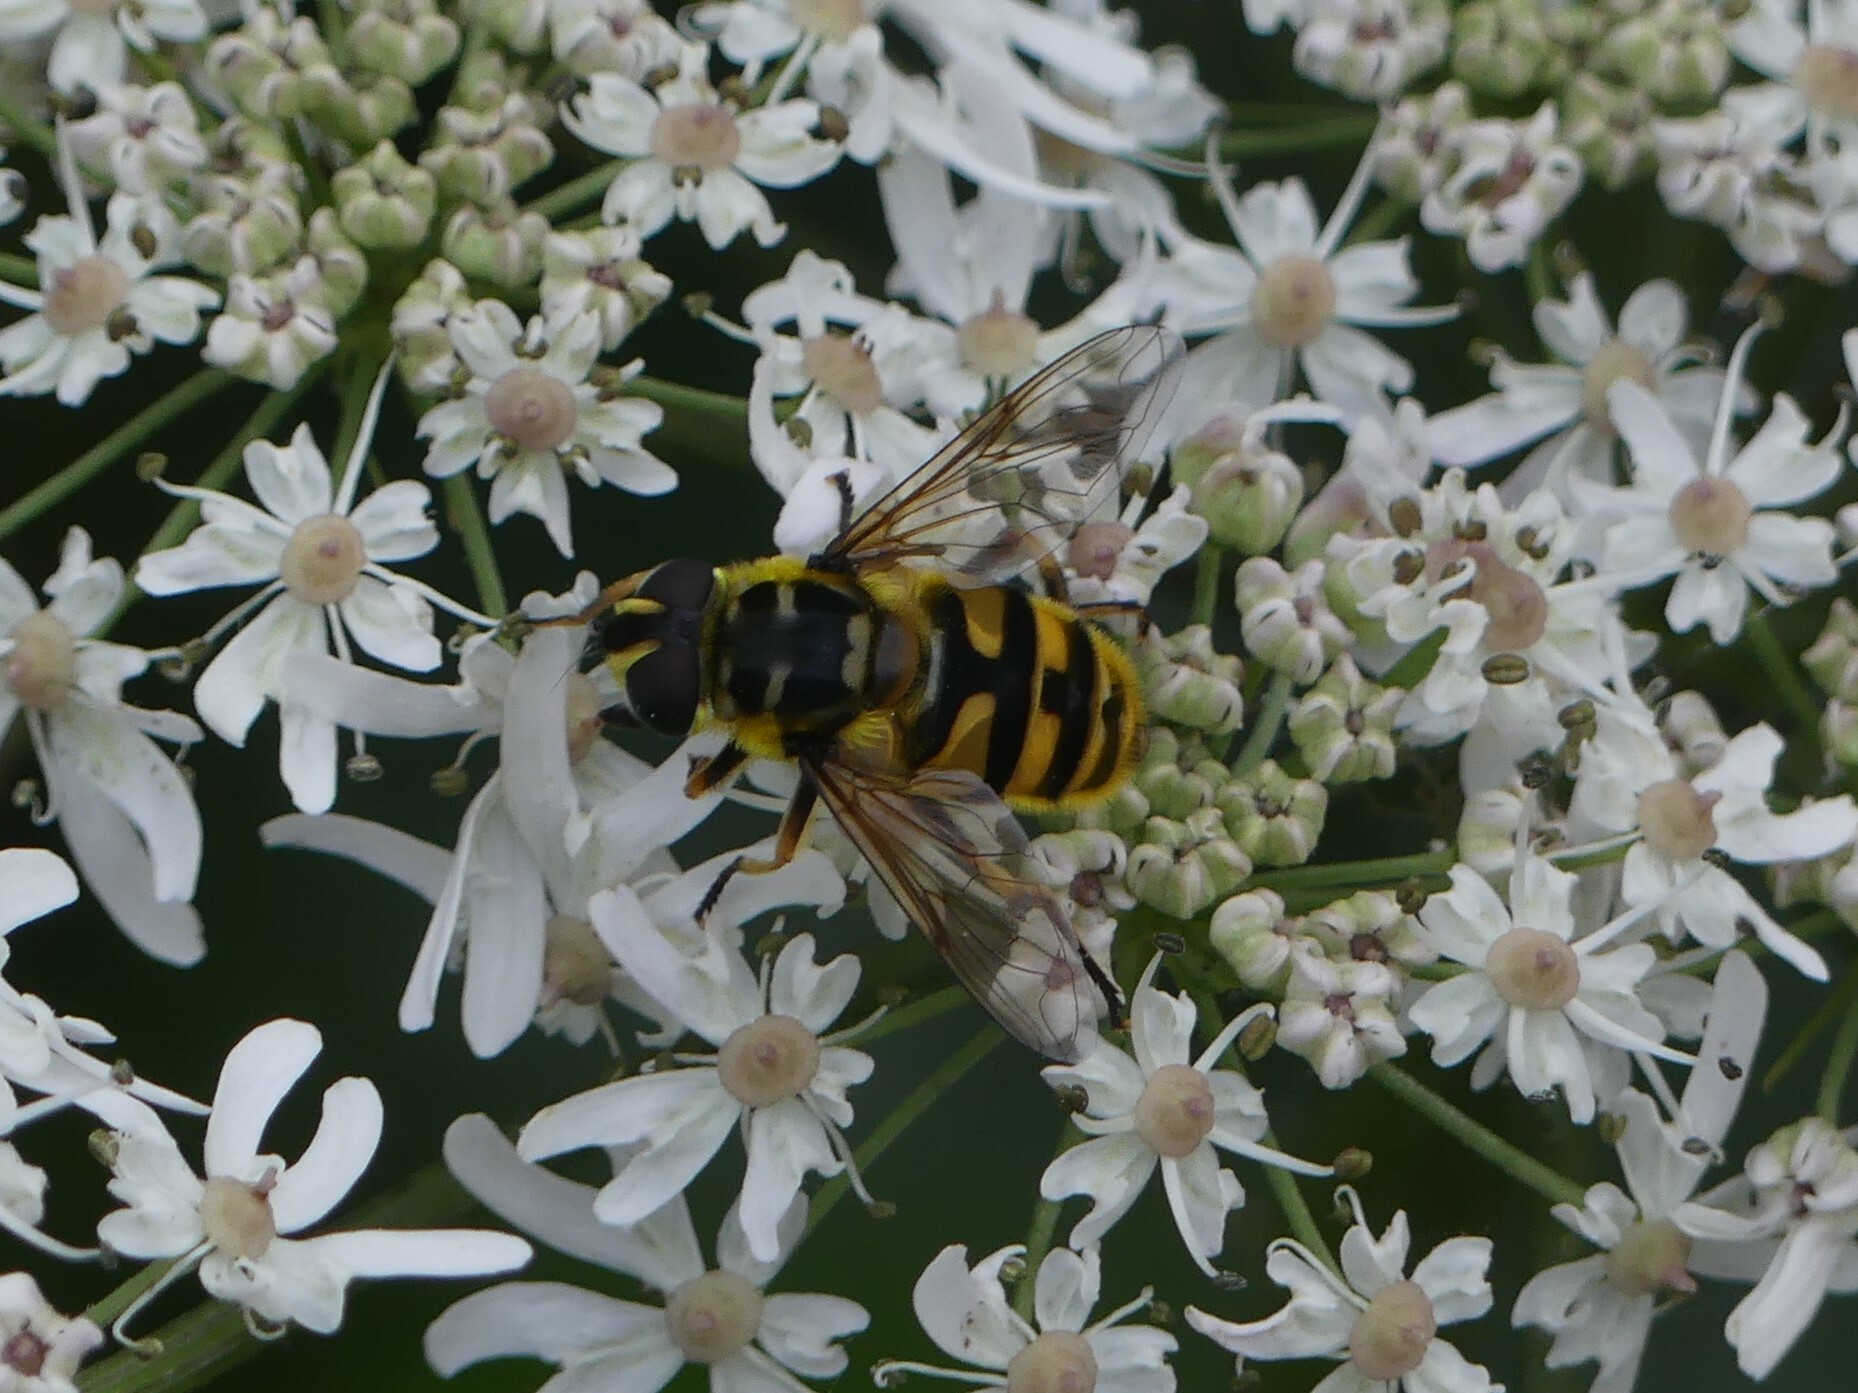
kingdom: Animalia
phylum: Arthropoda
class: Insecta
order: Diptera
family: Syrphidae
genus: Myathropa
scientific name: Myathropa florea
